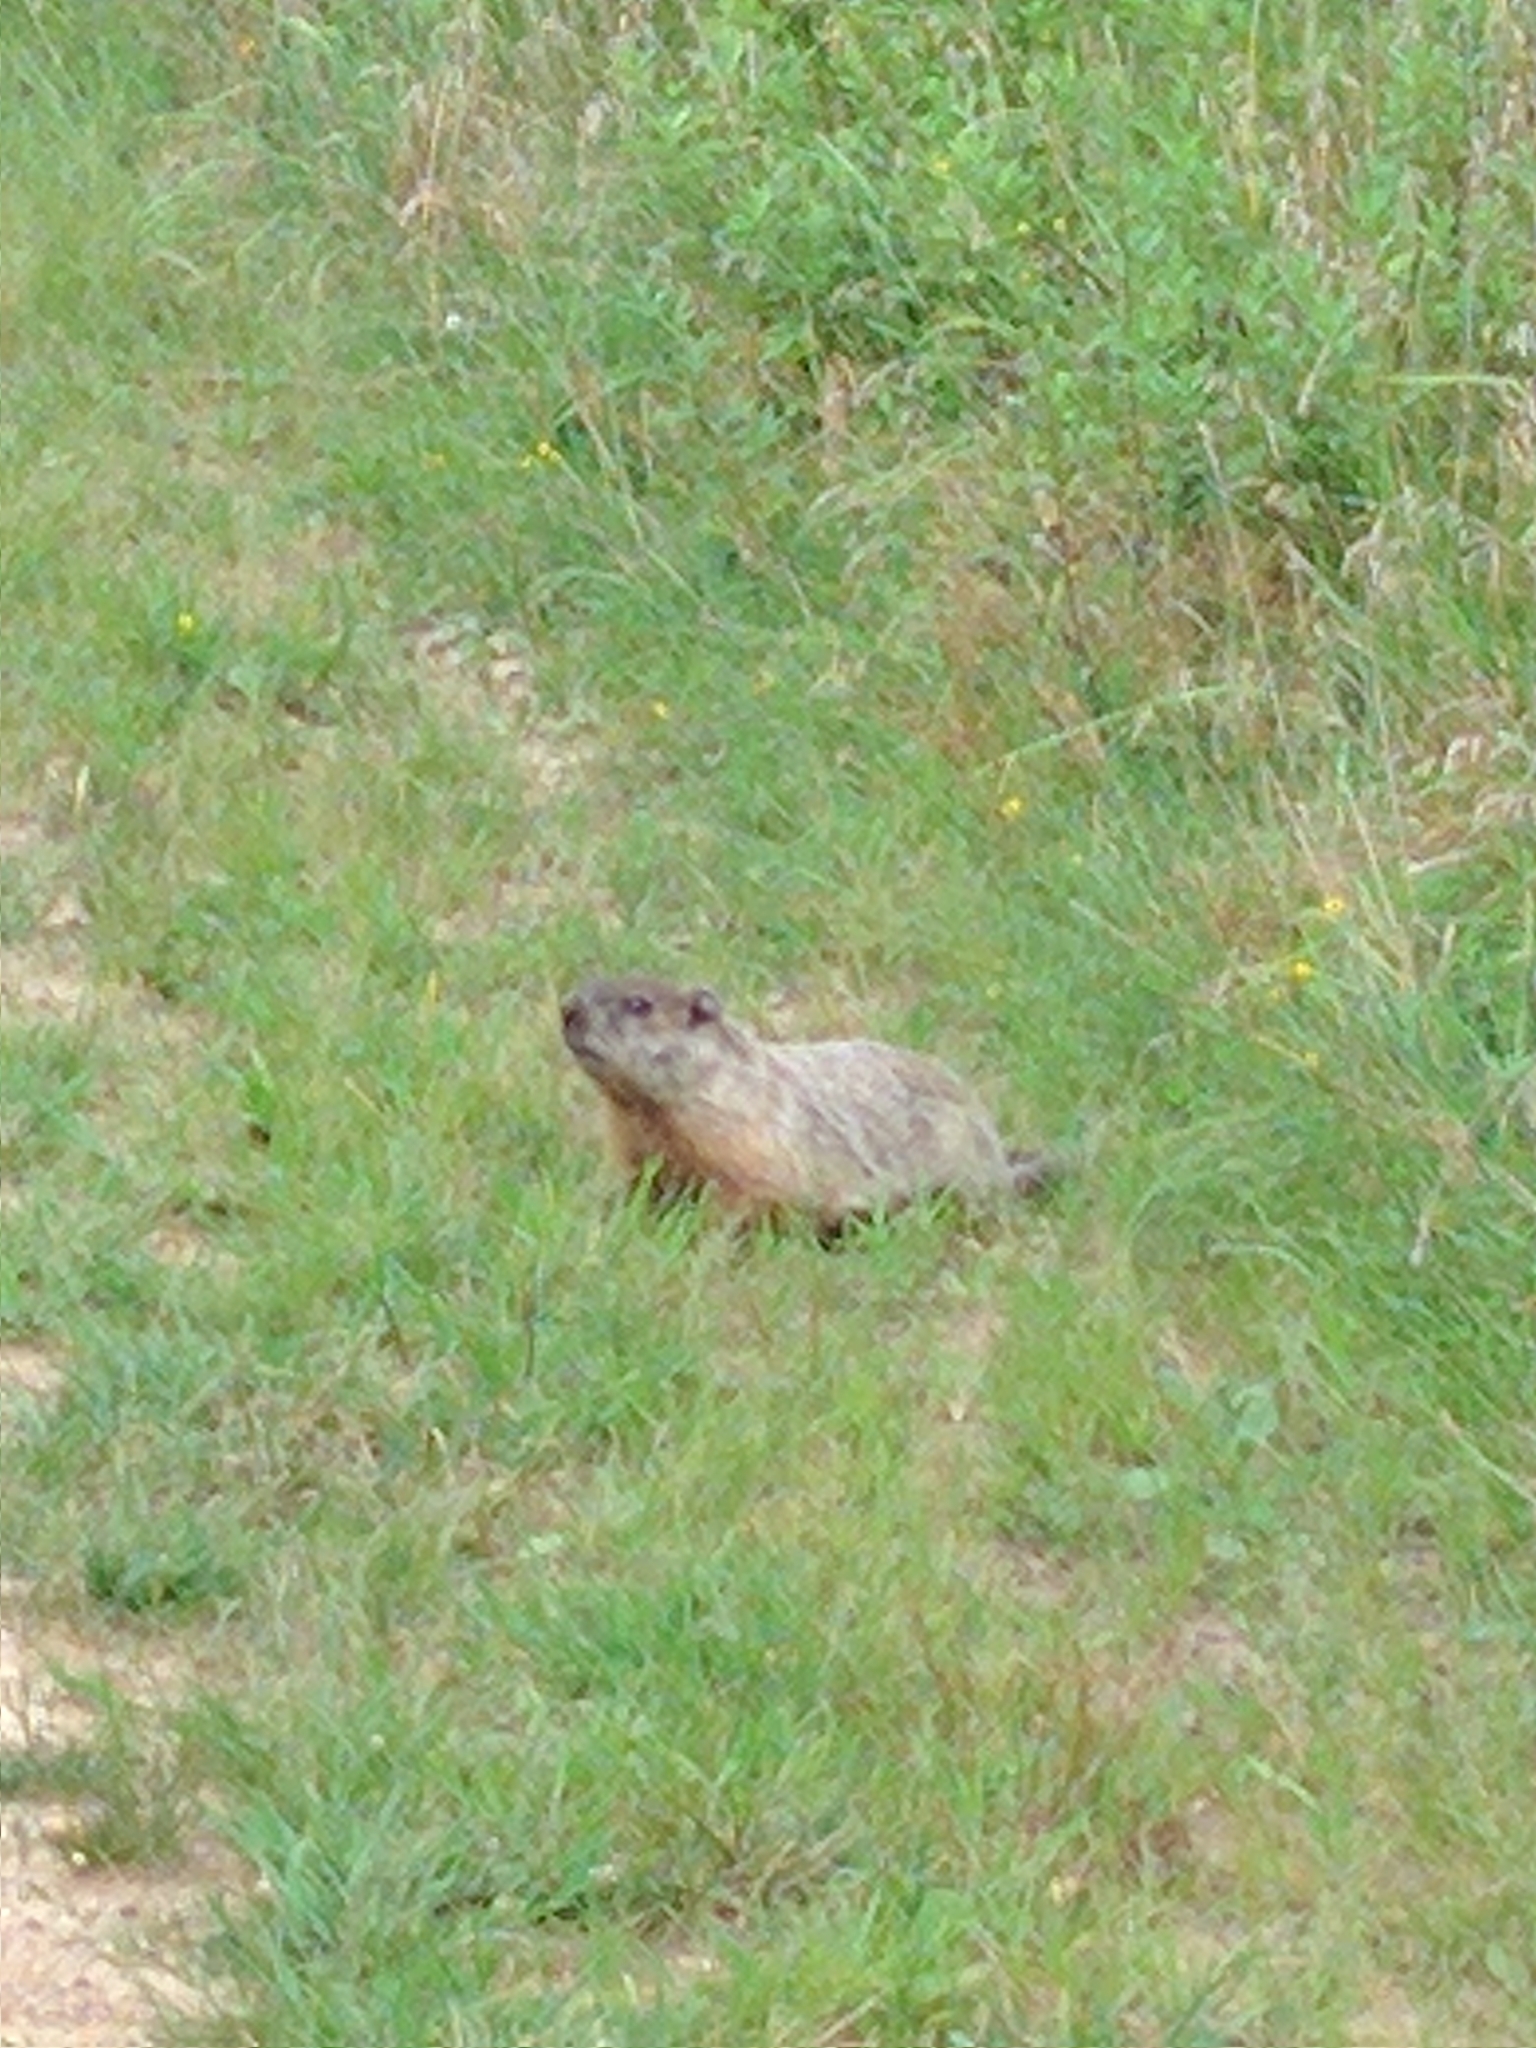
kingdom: Animalia
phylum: Chordata
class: Mammalia
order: Rodentia
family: Sciuridae
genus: Marmota
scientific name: Marmota monax
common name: Groundhog
